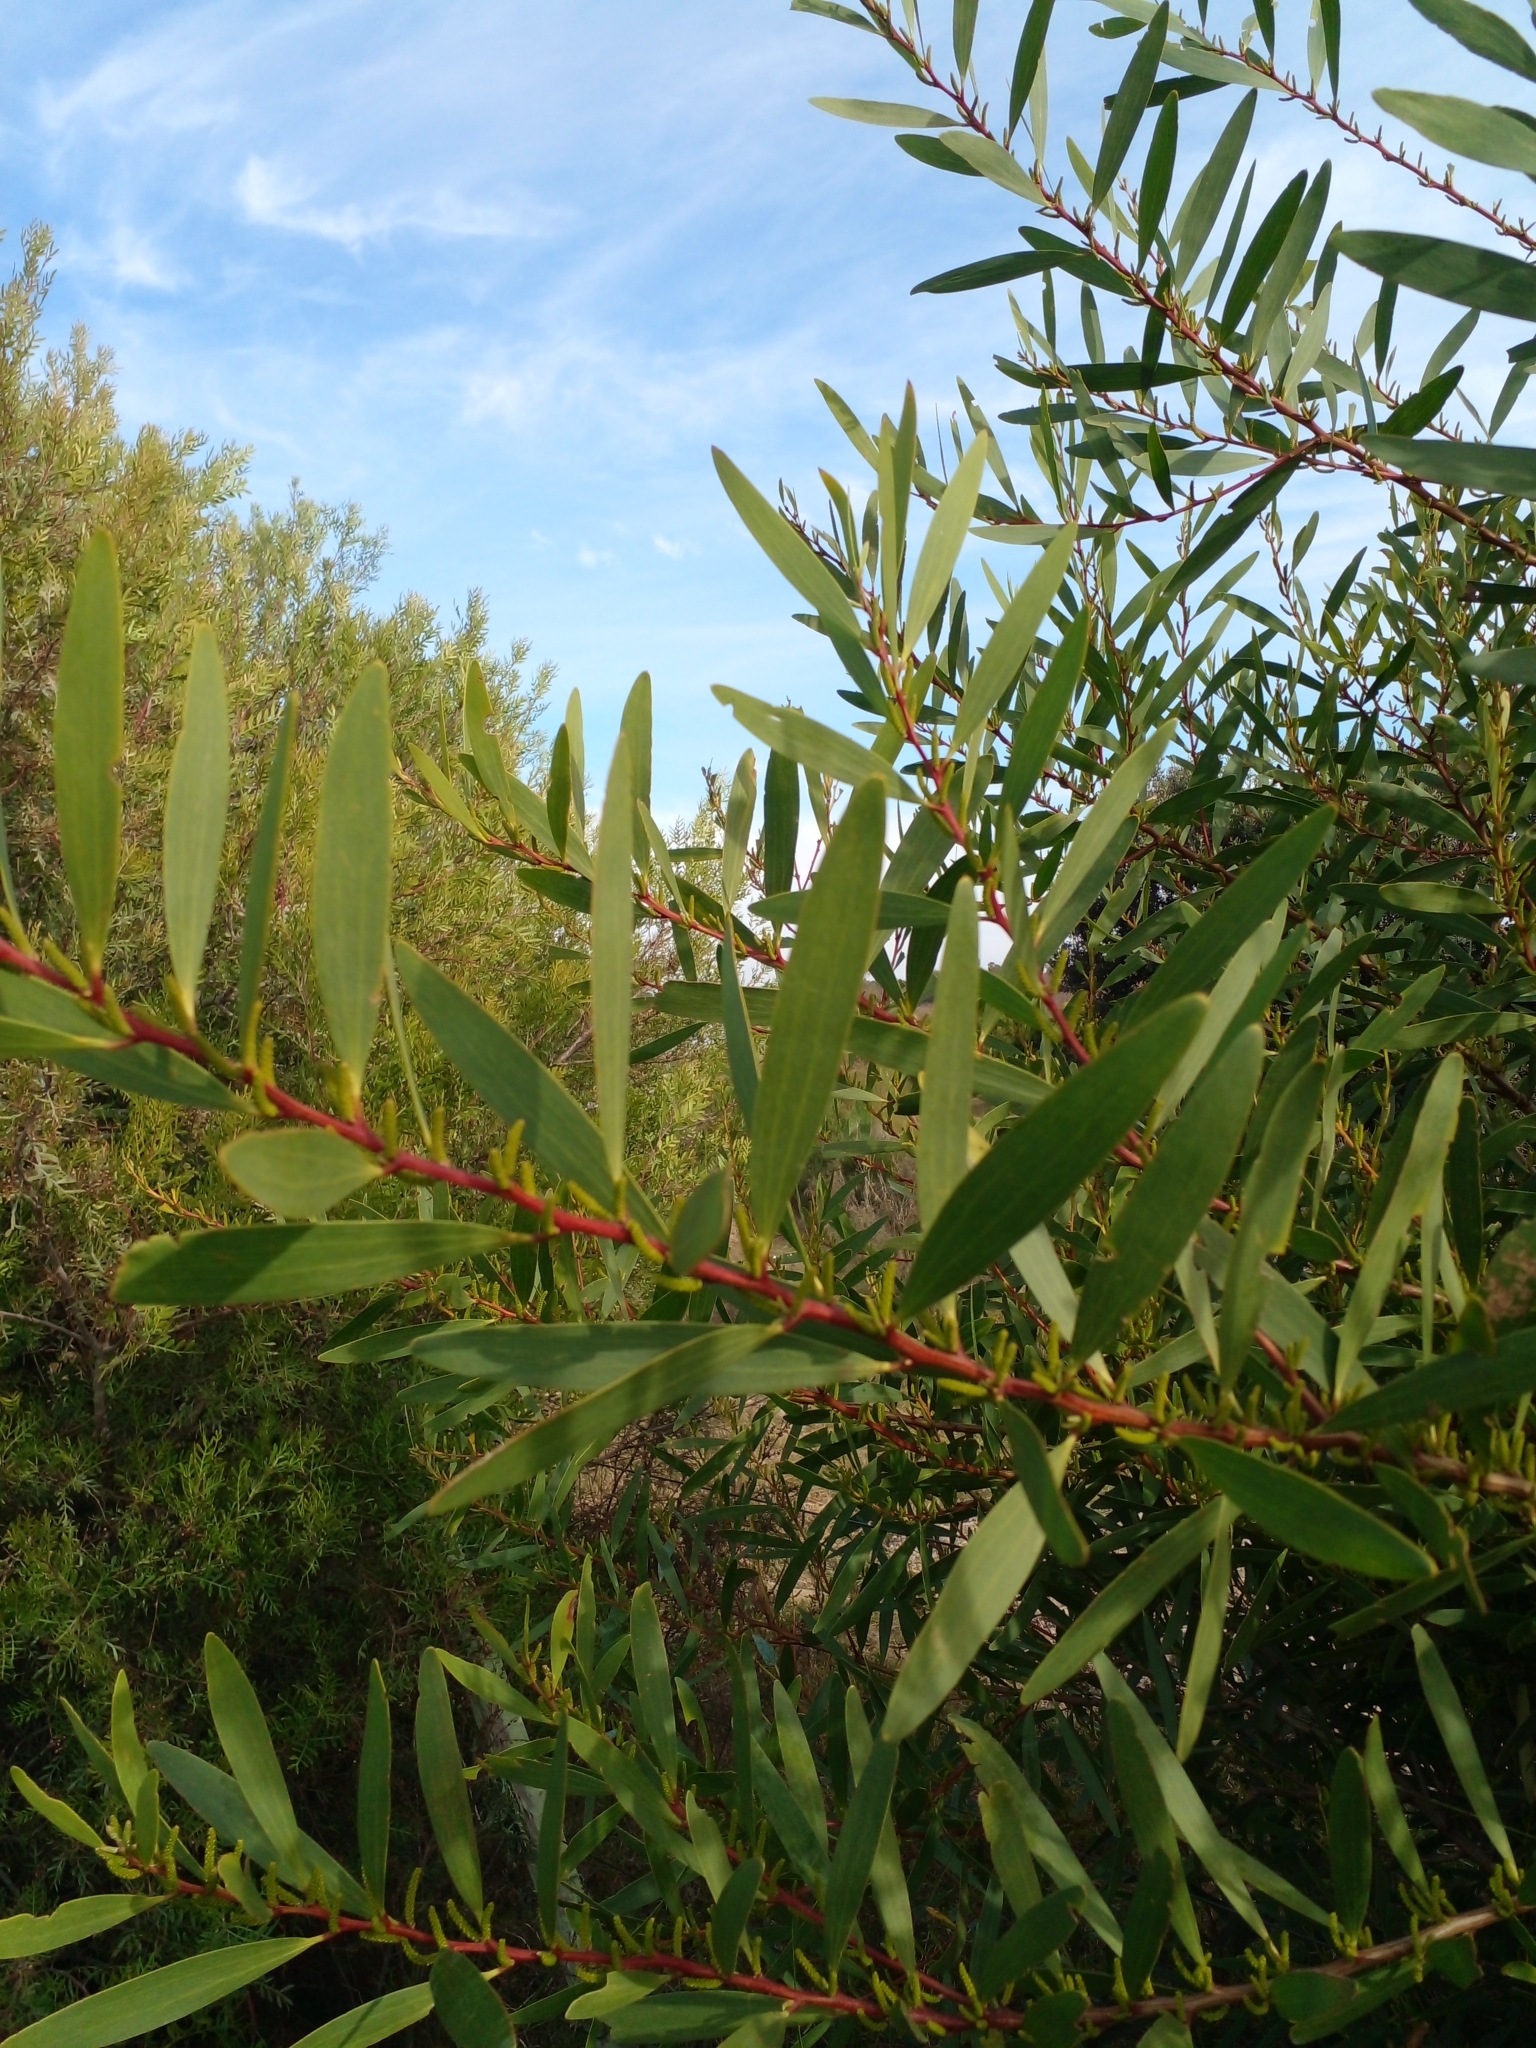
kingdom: Plantae
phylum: Tracheophyta
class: Magnoliopsida
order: Fabales
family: Fabaceae
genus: Acacia
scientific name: Acacia longifolia
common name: Sydney golden wattle
